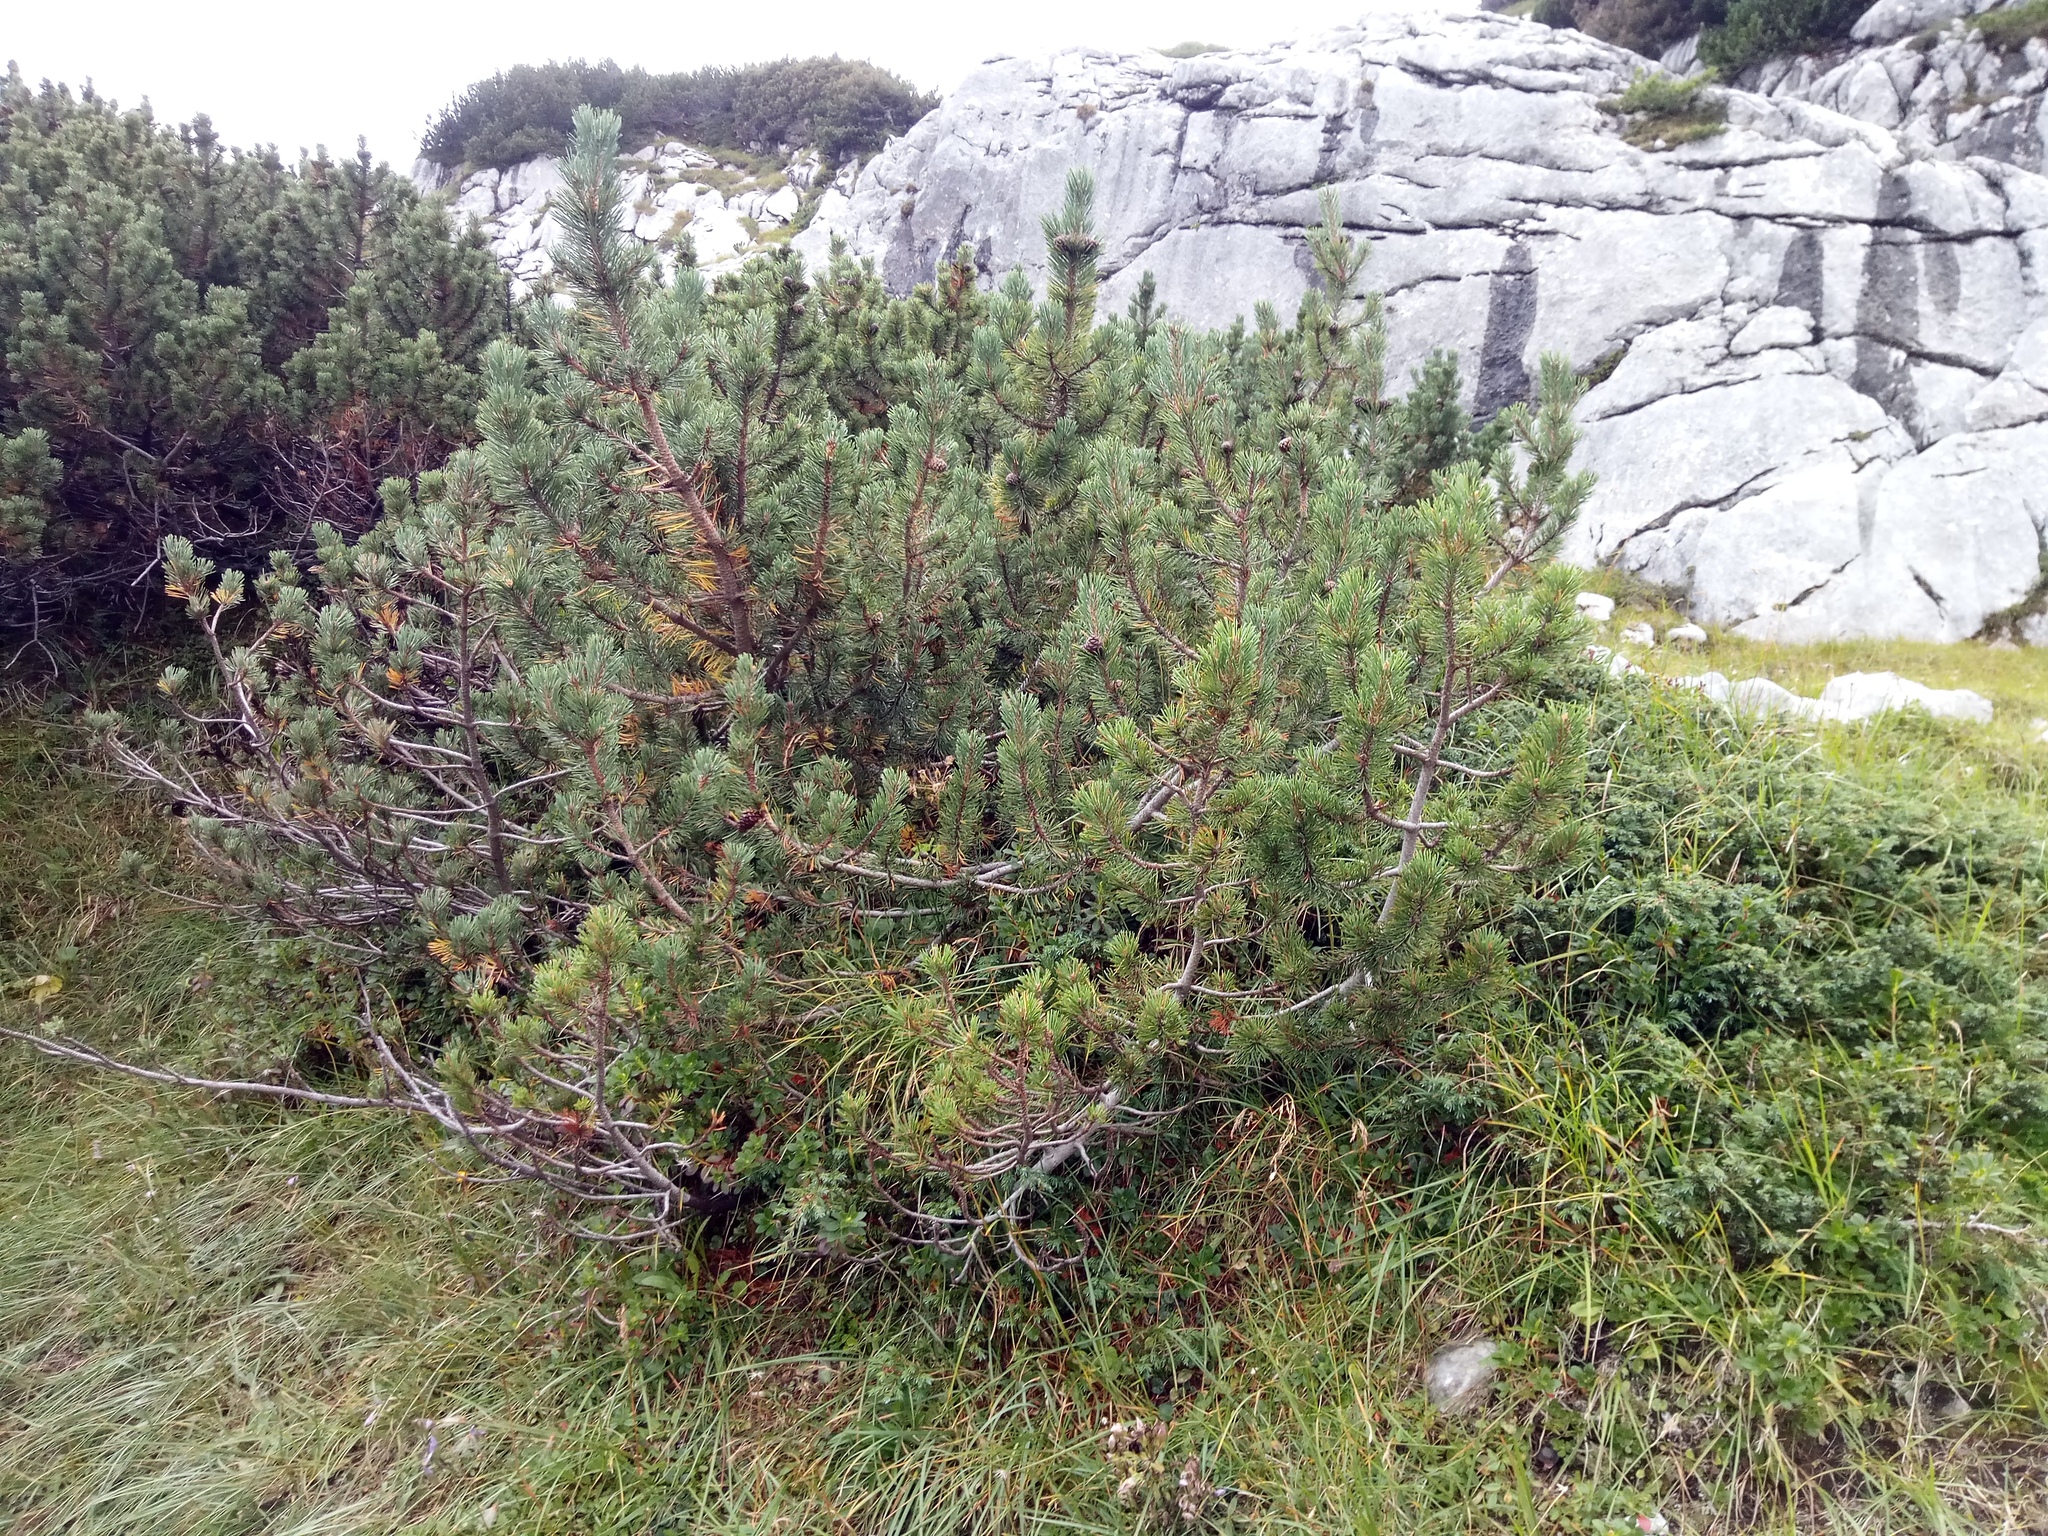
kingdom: Plantae
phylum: Tracheophyta
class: Pinopsida
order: Pinales
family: Pinaceae
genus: Pinus
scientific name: Pinus mugo
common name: Mugo pine
